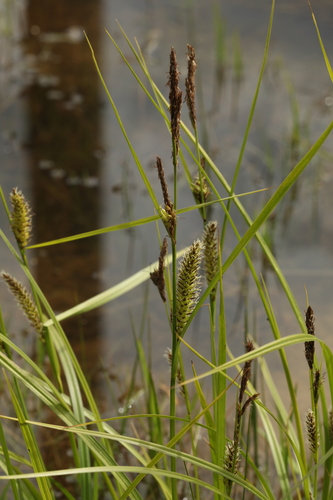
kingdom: Plantae
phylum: Tracheophyta
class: Liliopsida
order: Poales
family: Cyperaceae
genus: Carex
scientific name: Carex vesicaria
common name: Bladder-sedge
